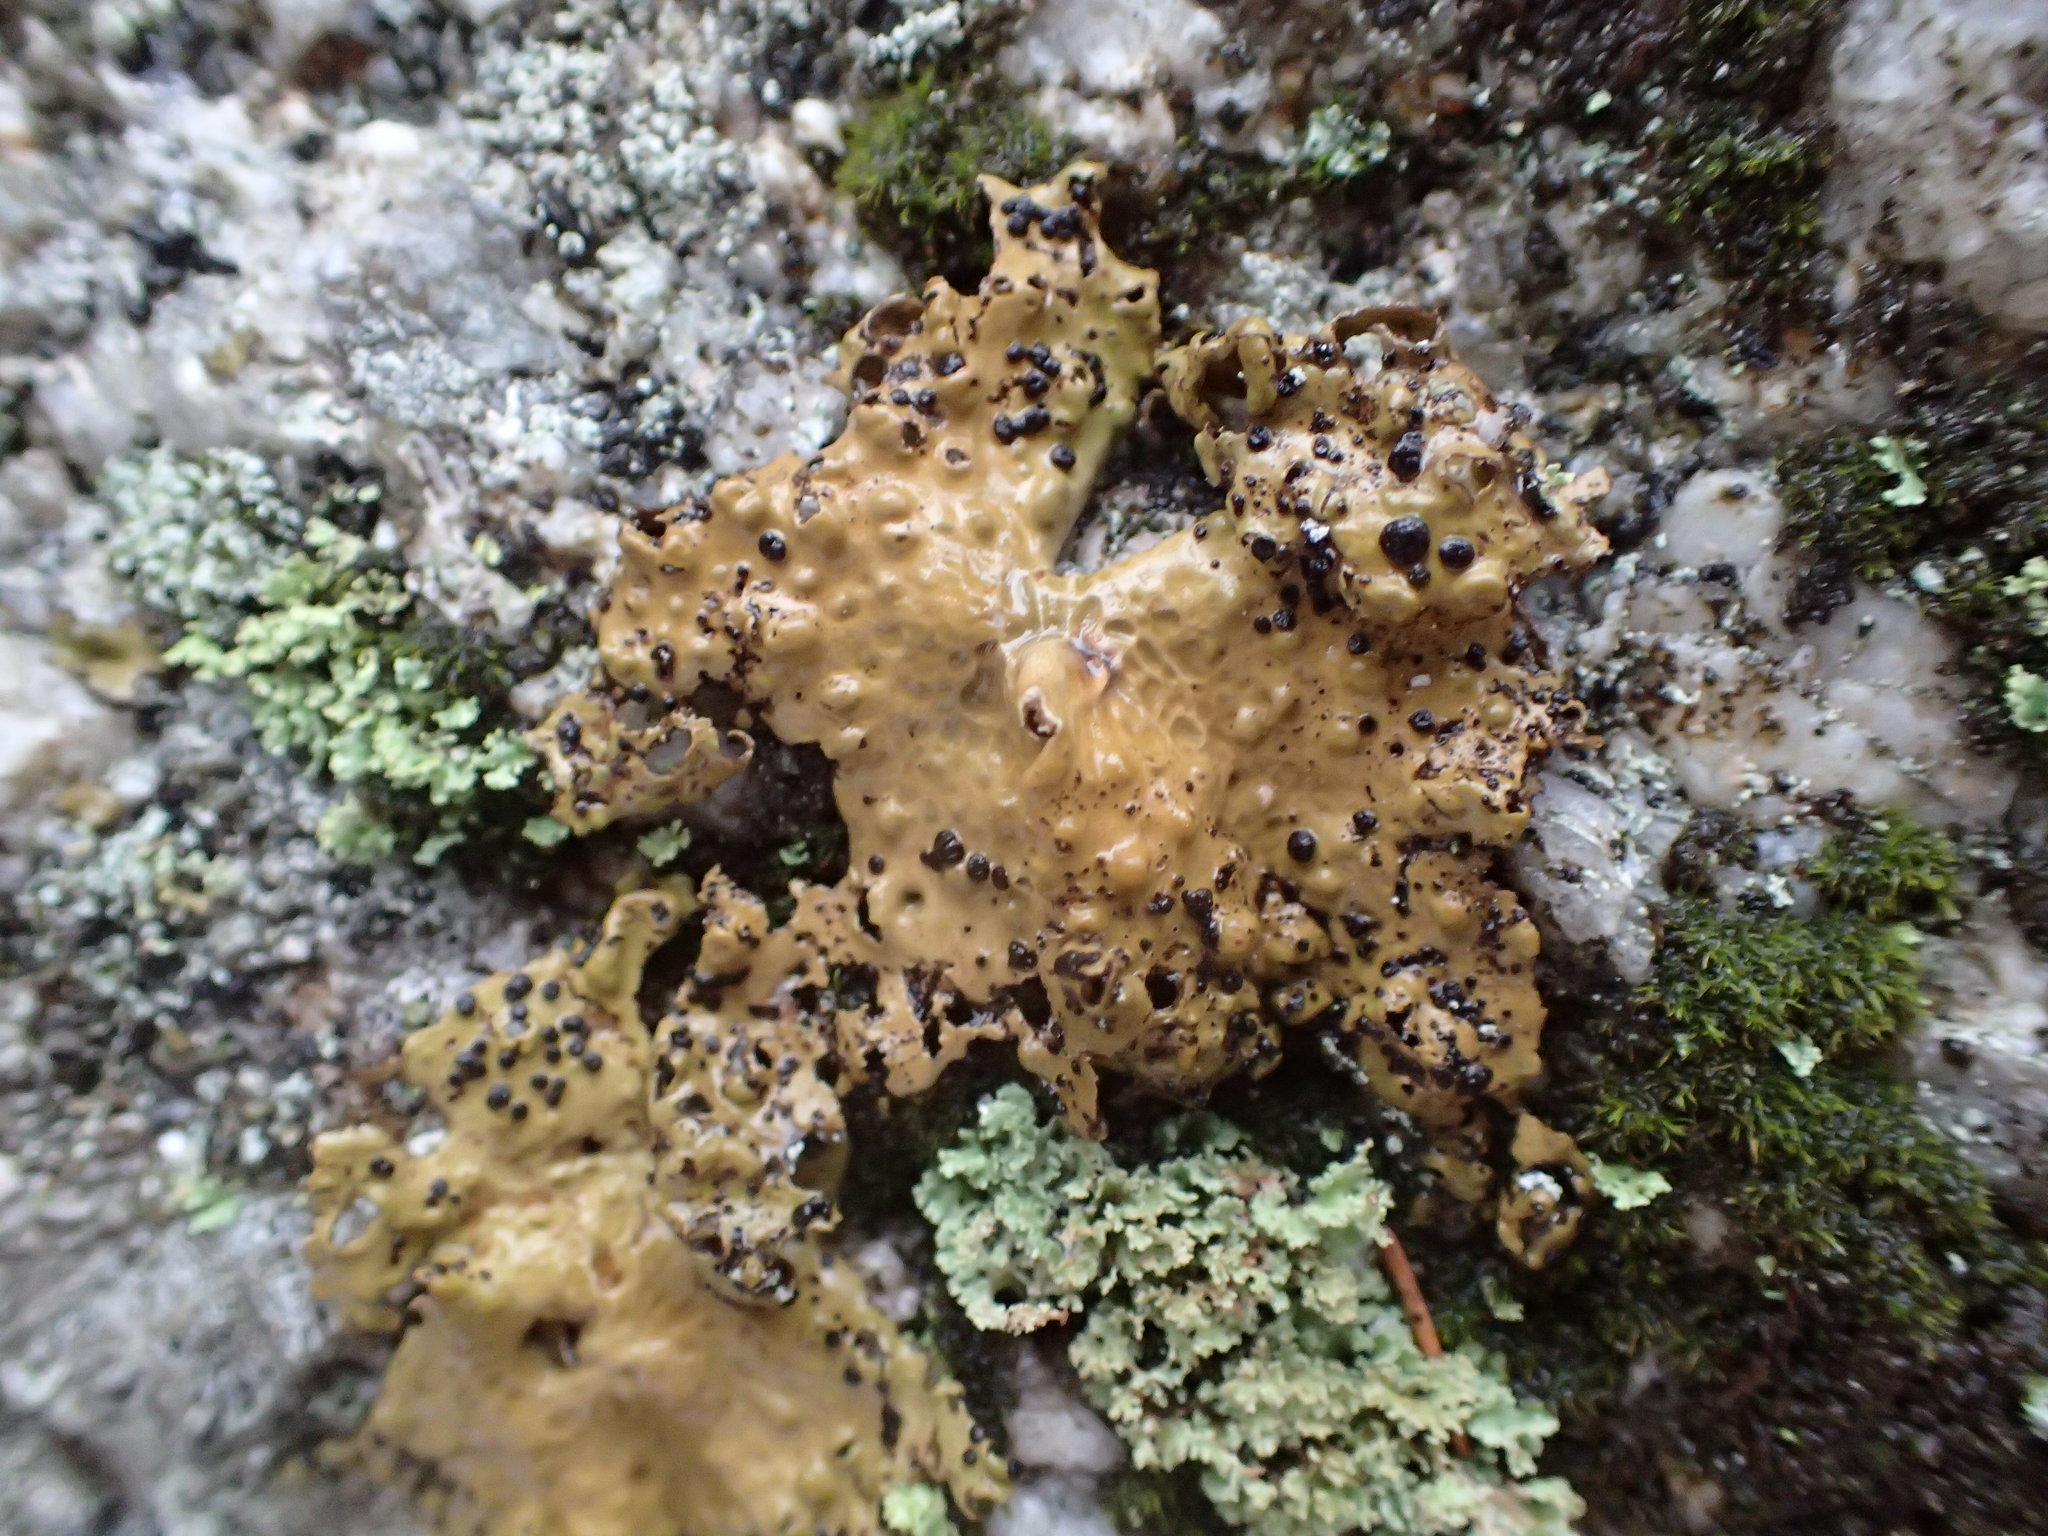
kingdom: Fungi
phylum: Ascomycota
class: Lecanoromycetes
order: Umbilicariales
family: Umbilicariaceae
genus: Lasallia
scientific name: Lasallia papulosa
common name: Common toadskin lichen
